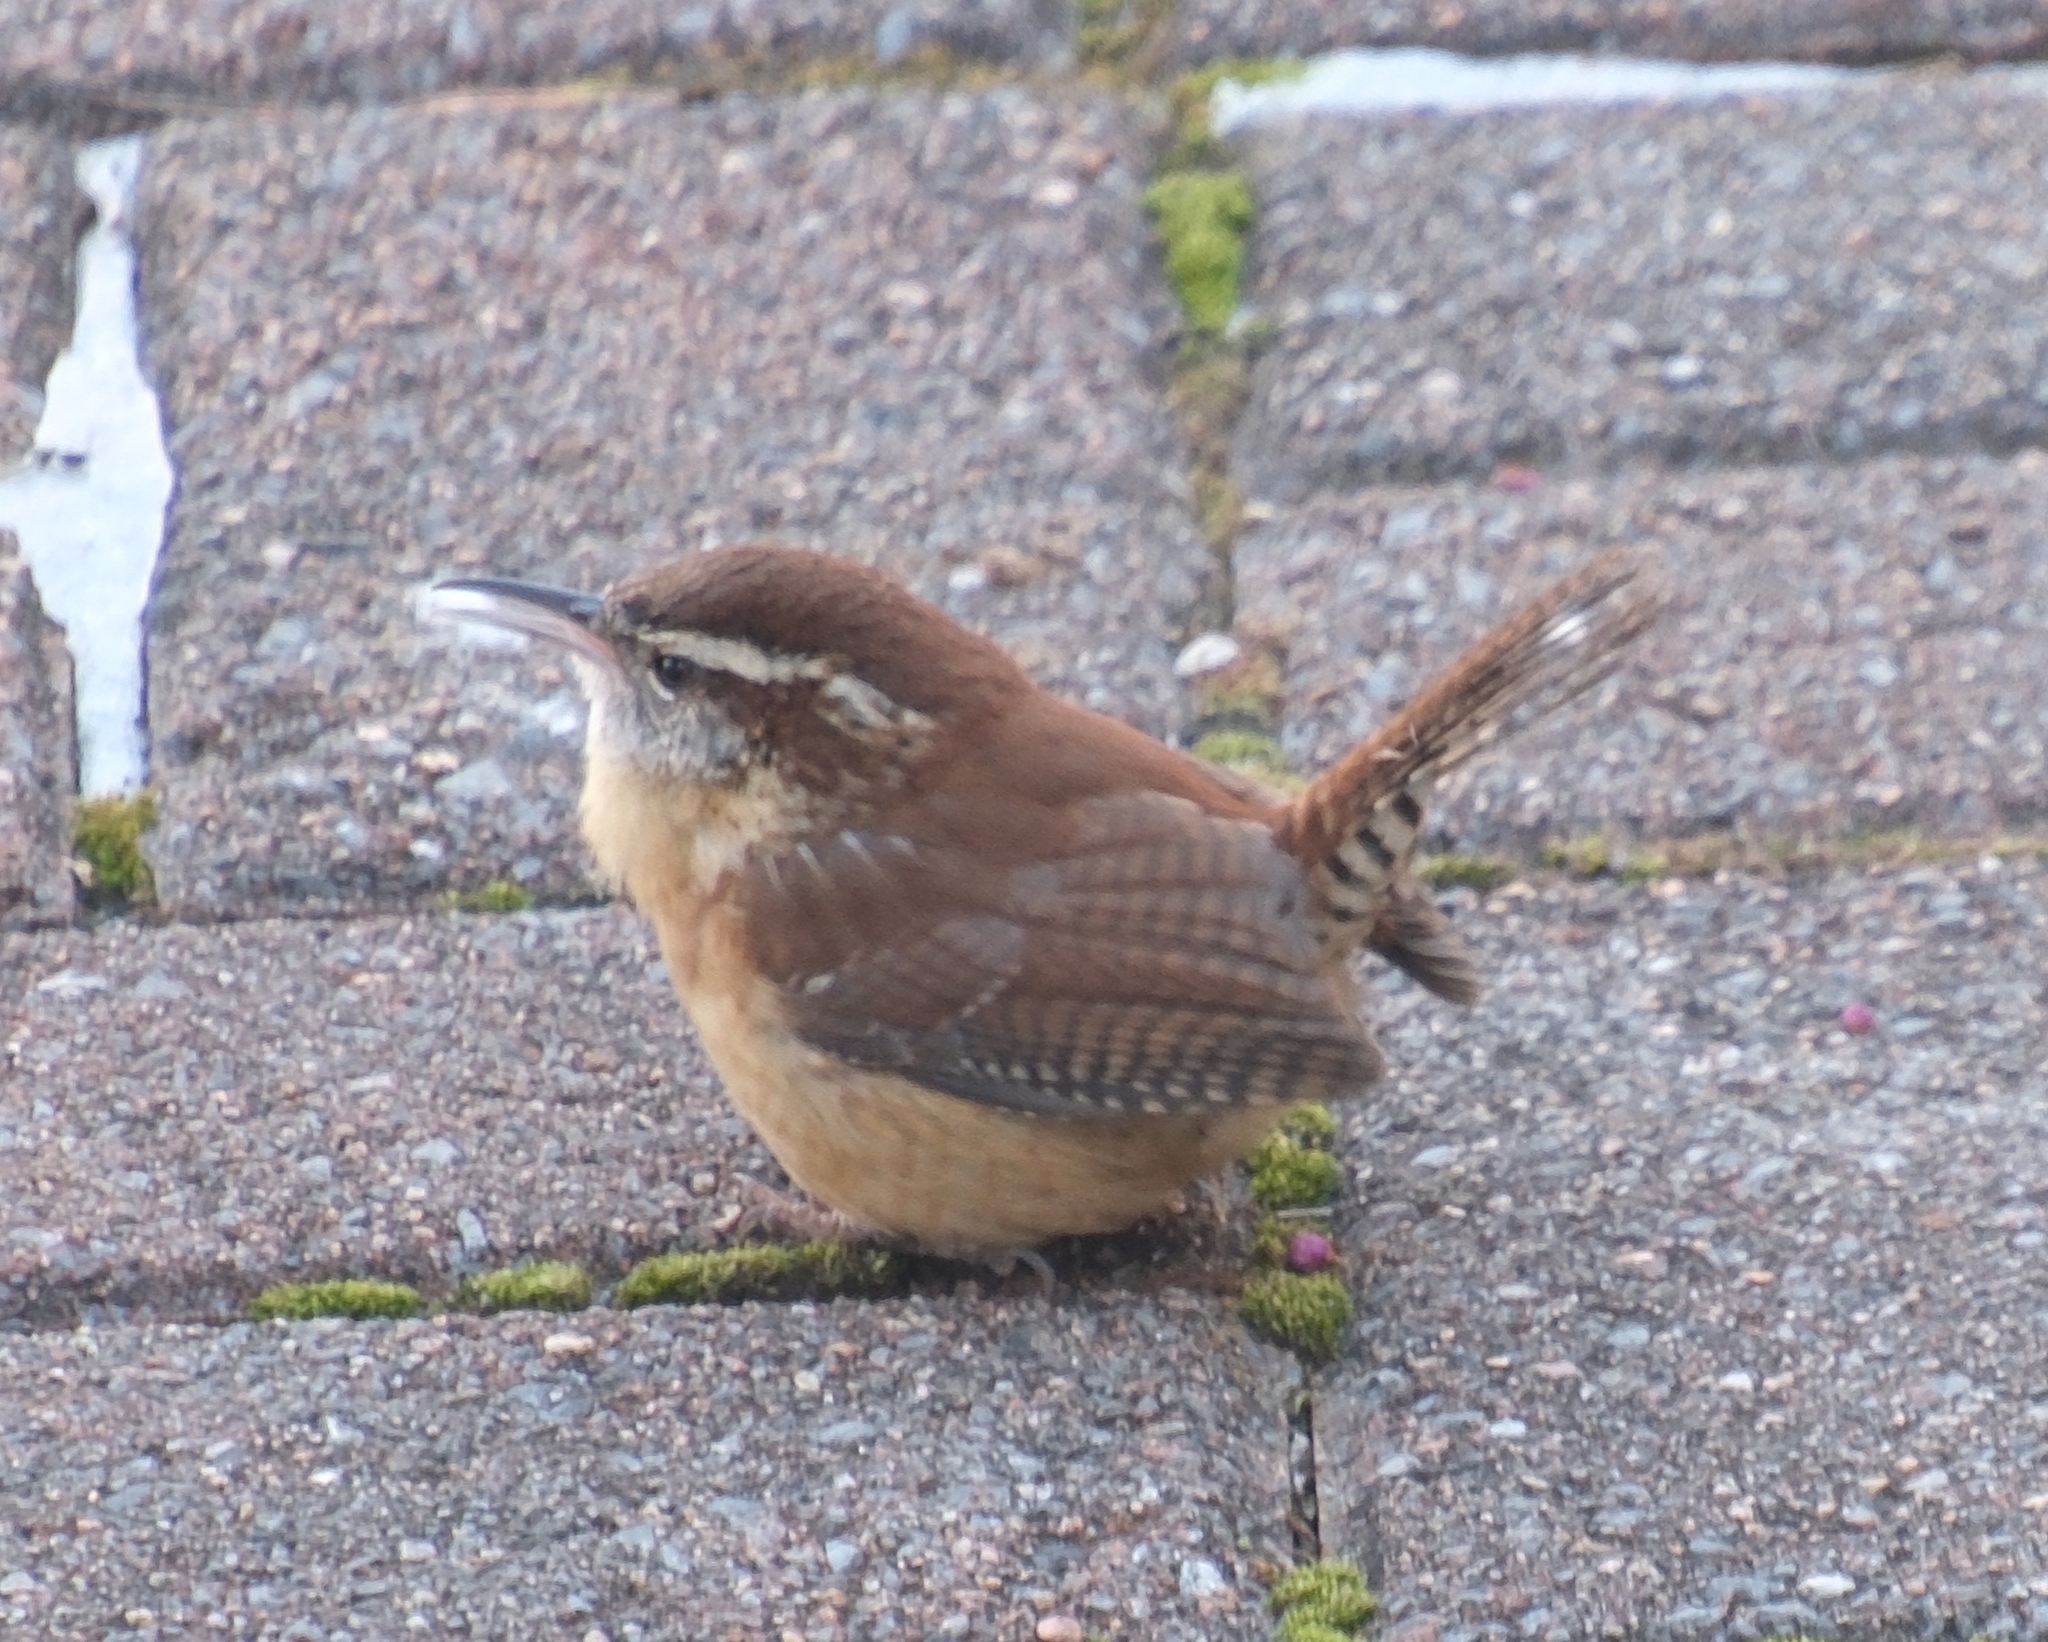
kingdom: Animalia
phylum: Chordata
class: Aves
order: Passeriformes
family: Troglodytidae
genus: Thryothorus
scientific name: Thryothorus ludovicianus
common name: Carolina wren
